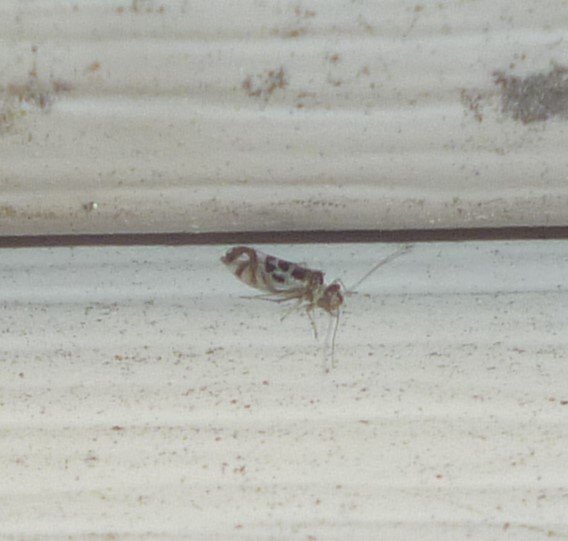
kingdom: Animalia
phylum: Arthropoda
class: Insecta
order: Psocodea
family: Stenopsocidae
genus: Graphopsocus
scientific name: Graphopsocus cruciatus
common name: Lizard bark louse
